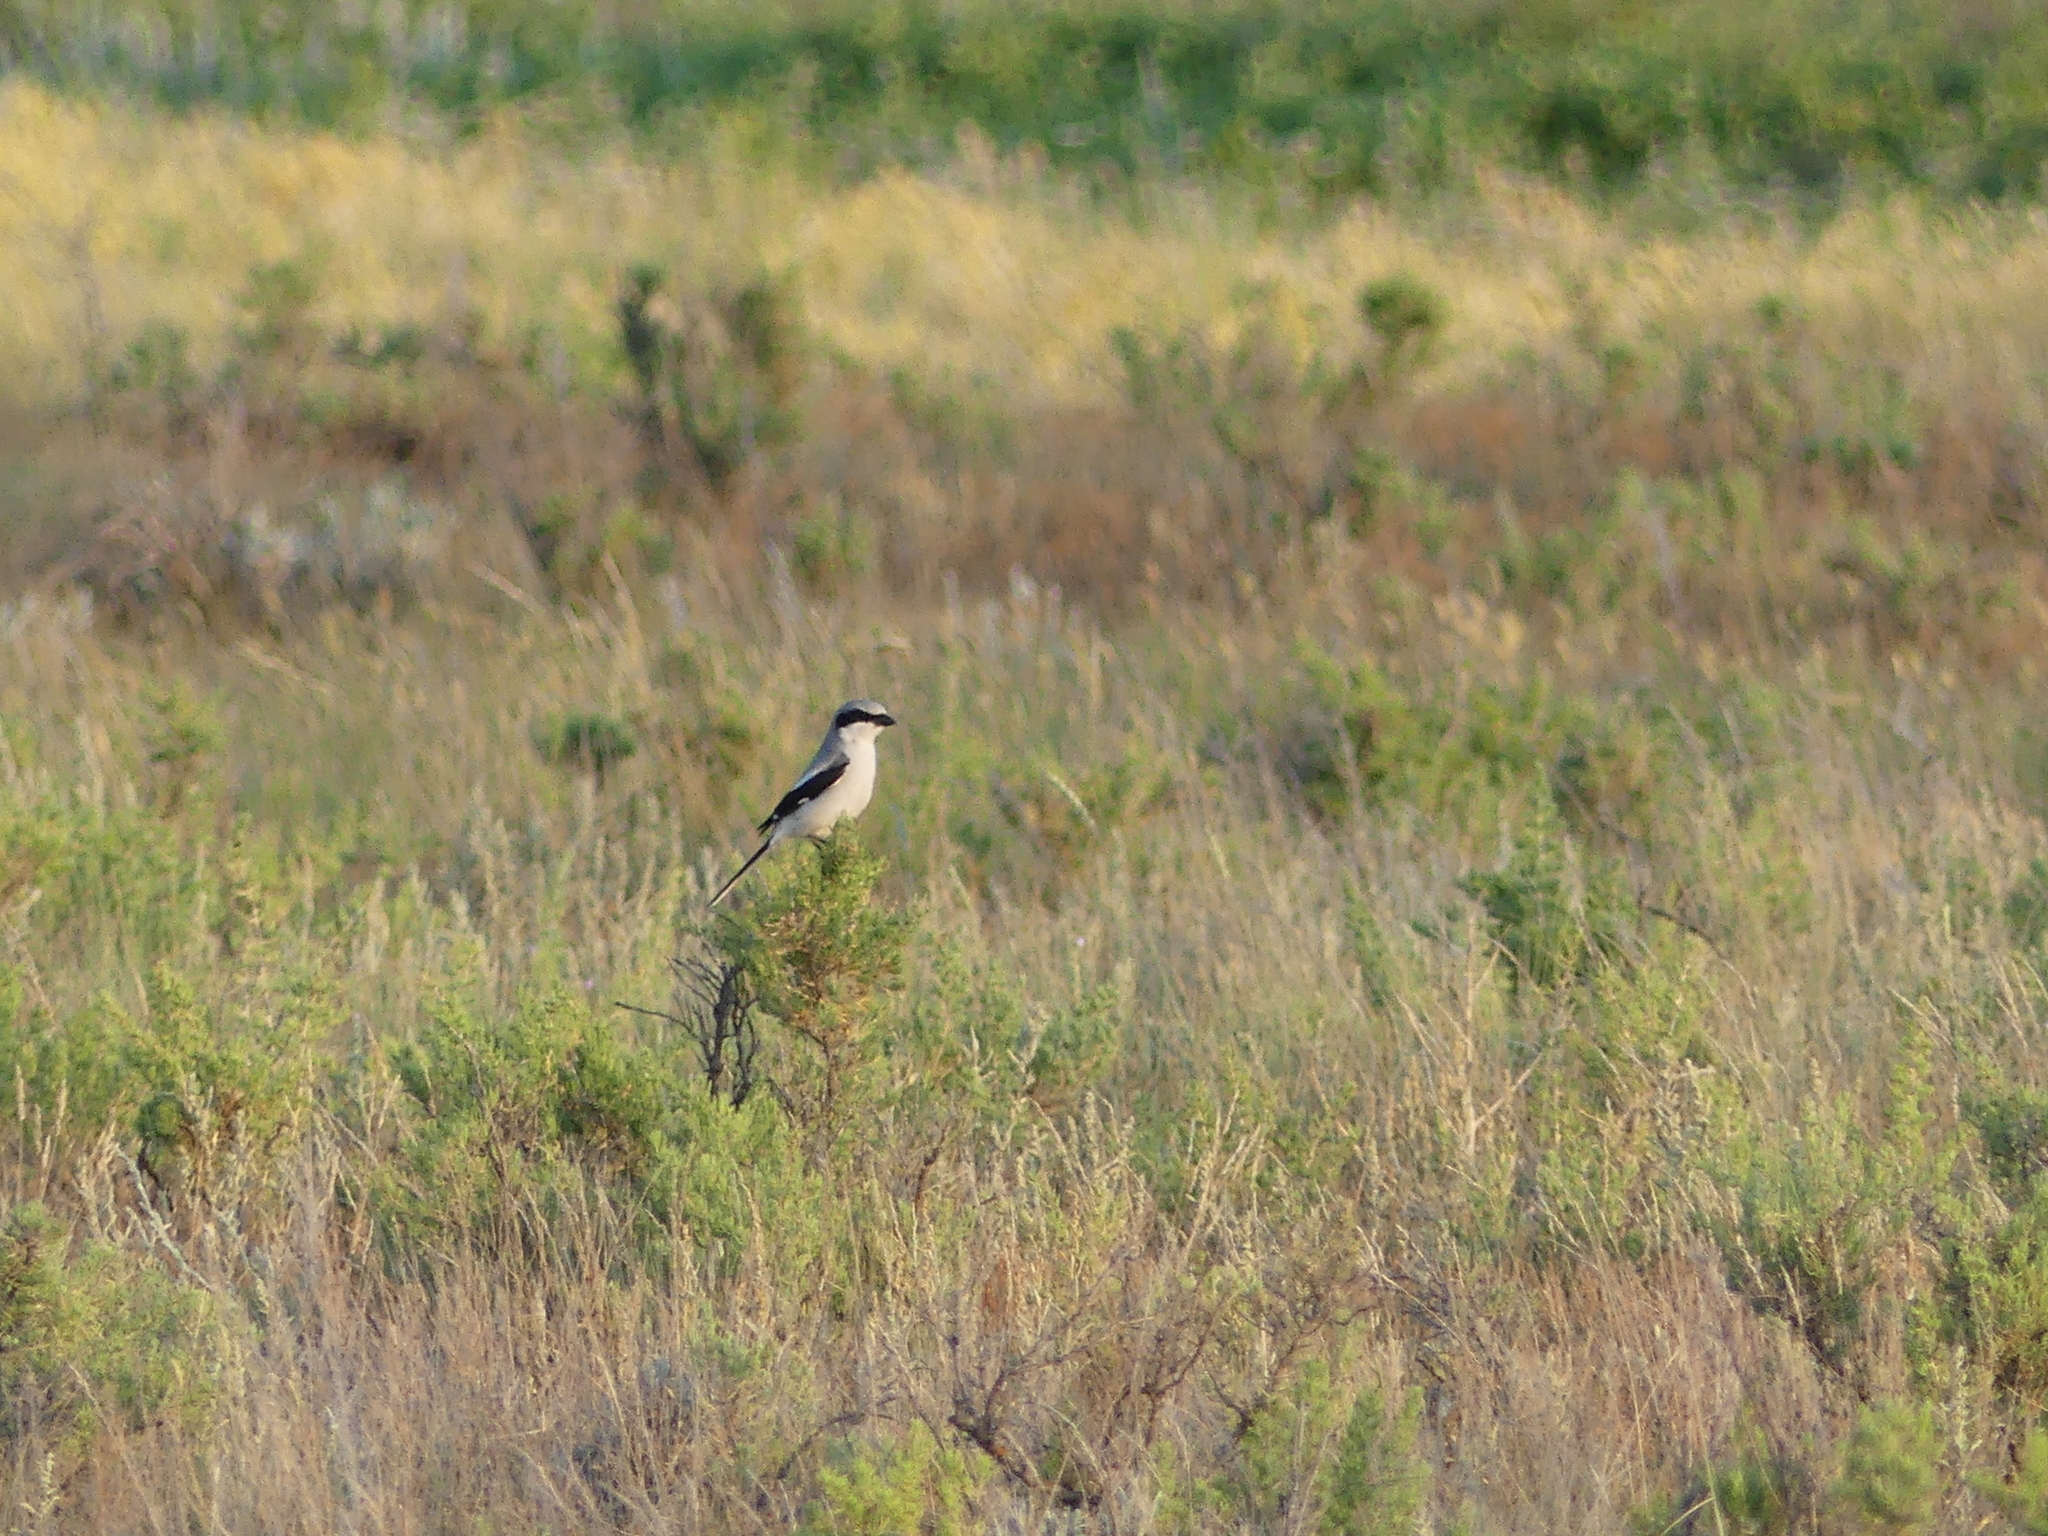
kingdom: Animalia
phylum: Chordata
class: Aves
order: Passeriformes
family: Laniidae
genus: Lanius
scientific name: Lanius ludovicianus
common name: Loggerhead shrike
